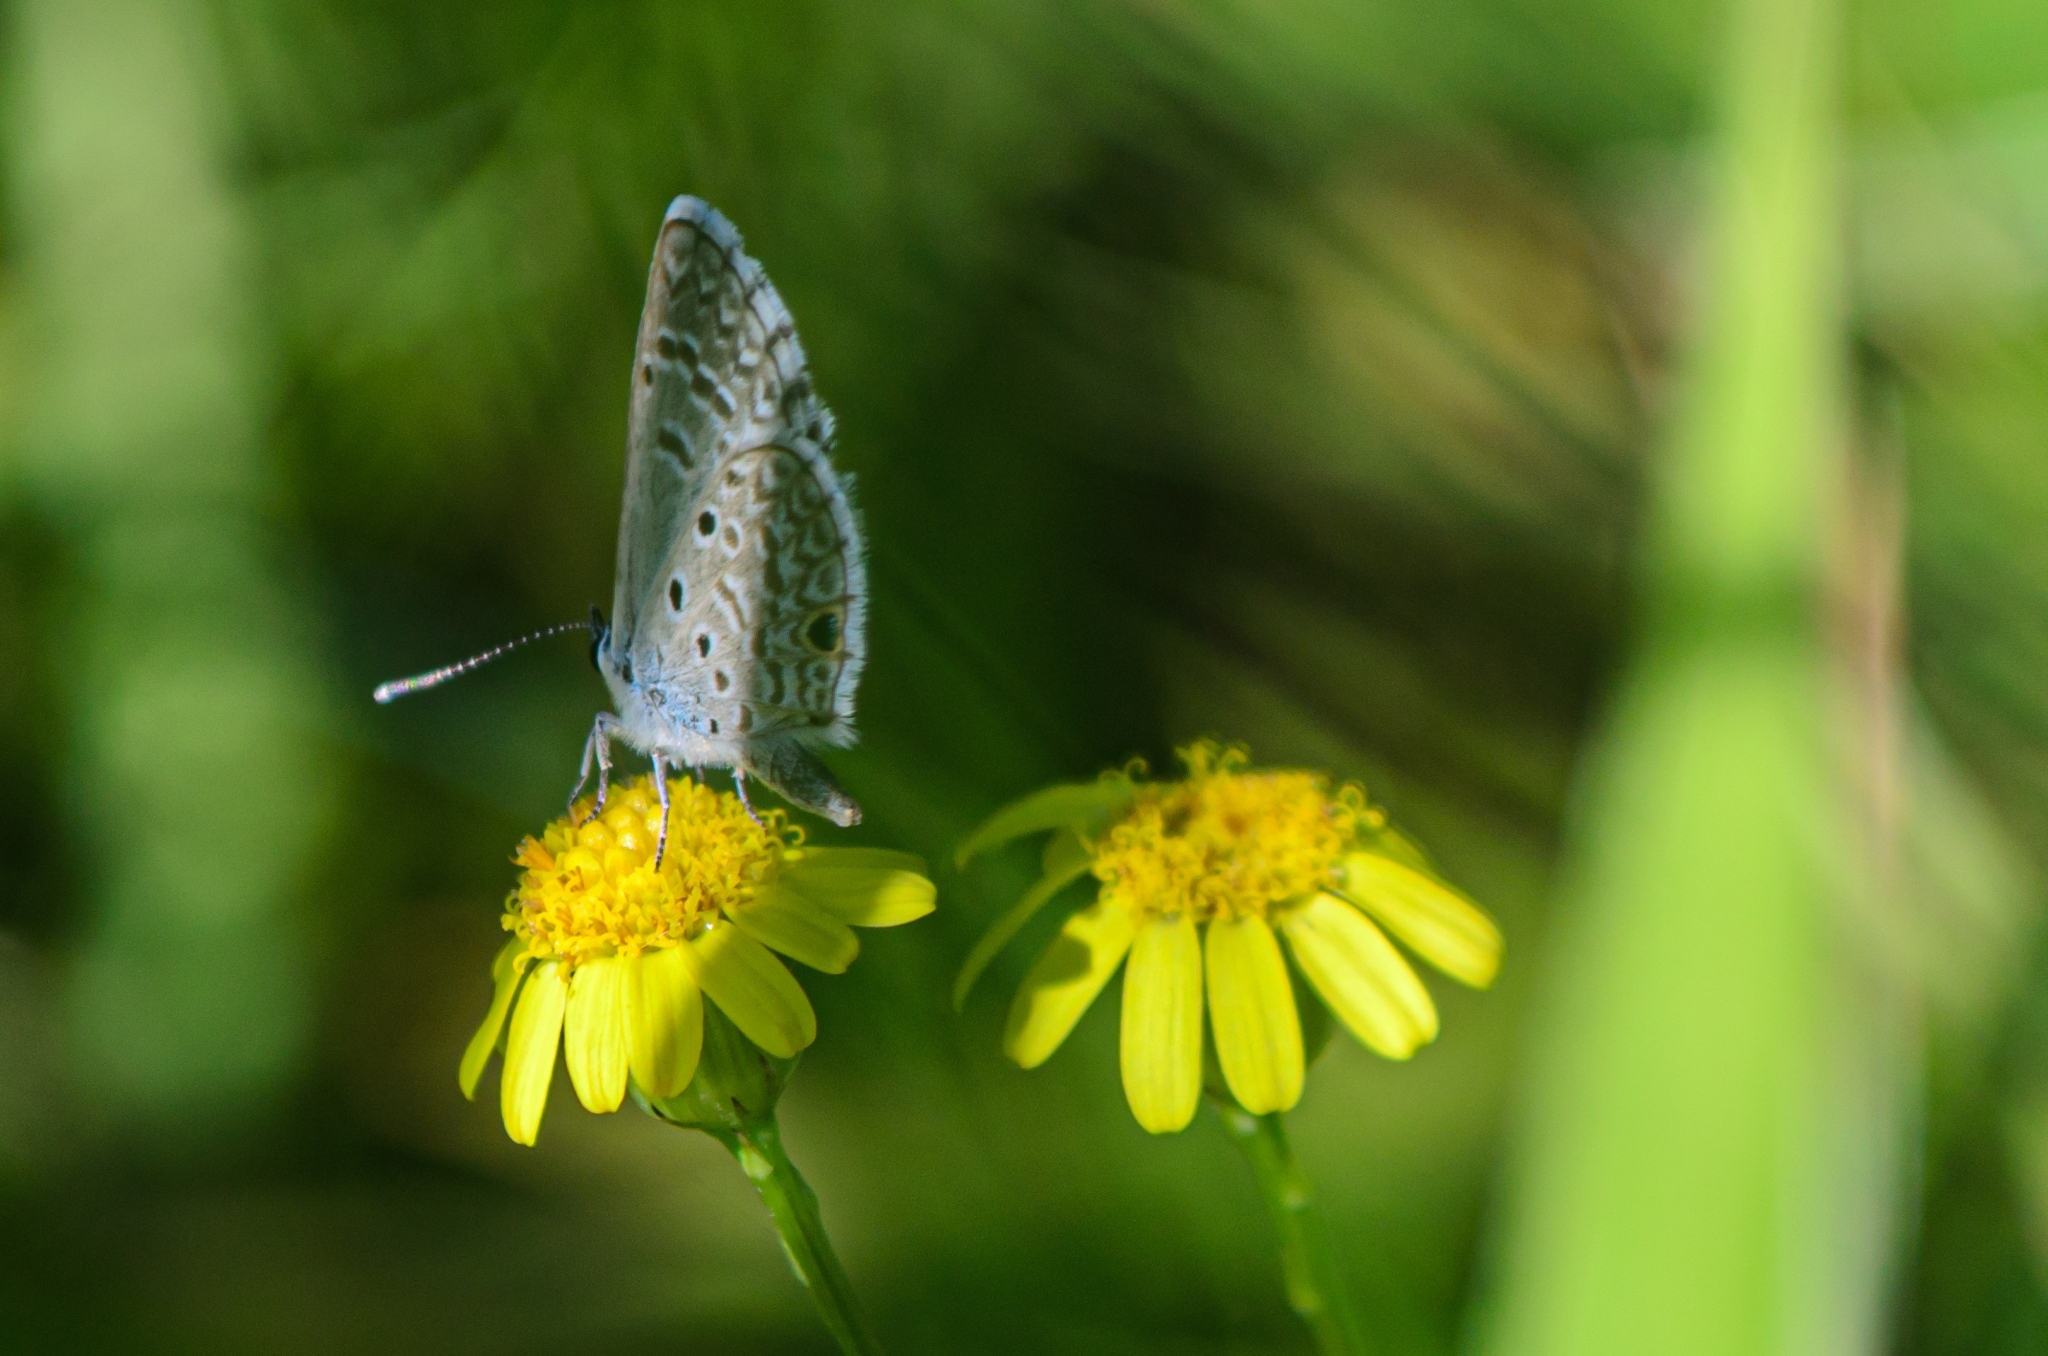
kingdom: Animalia
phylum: Arthropoda
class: Insecta
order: Lepidoptera
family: Lycaenidae
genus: Hemiargus
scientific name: Hemiargus hanno
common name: Common blue
